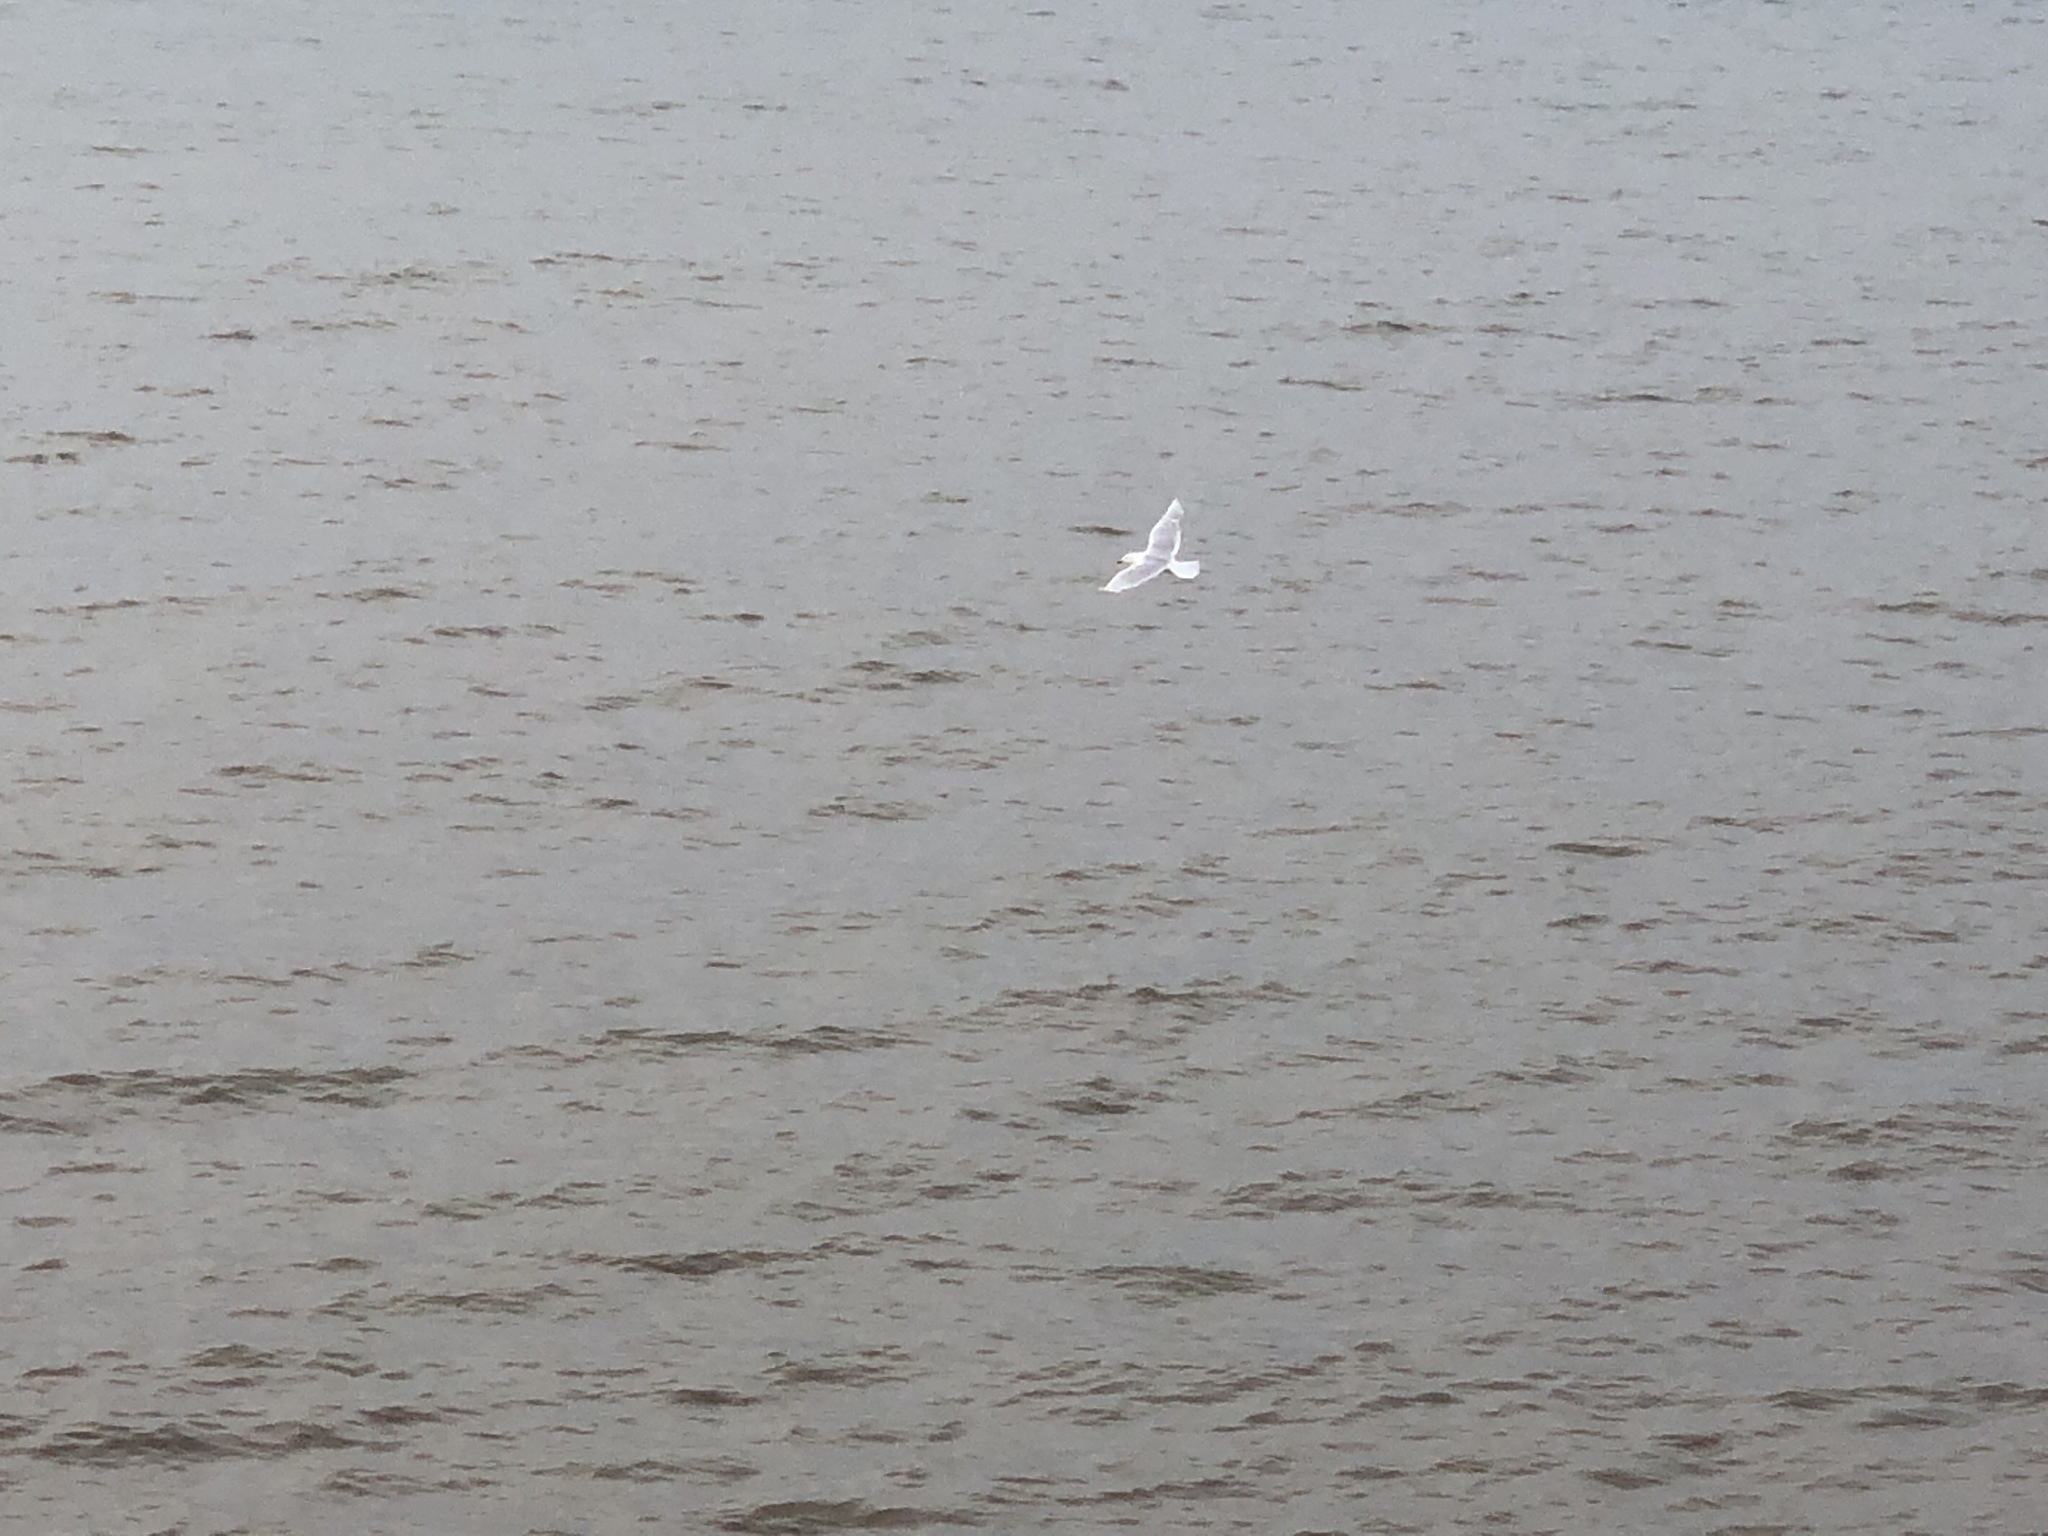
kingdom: Animalia
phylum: Chordata
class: Aves
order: Charadriiformes
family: Laridae
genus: Larus
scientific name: Larus hyperboreus
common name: Glaucous gull
